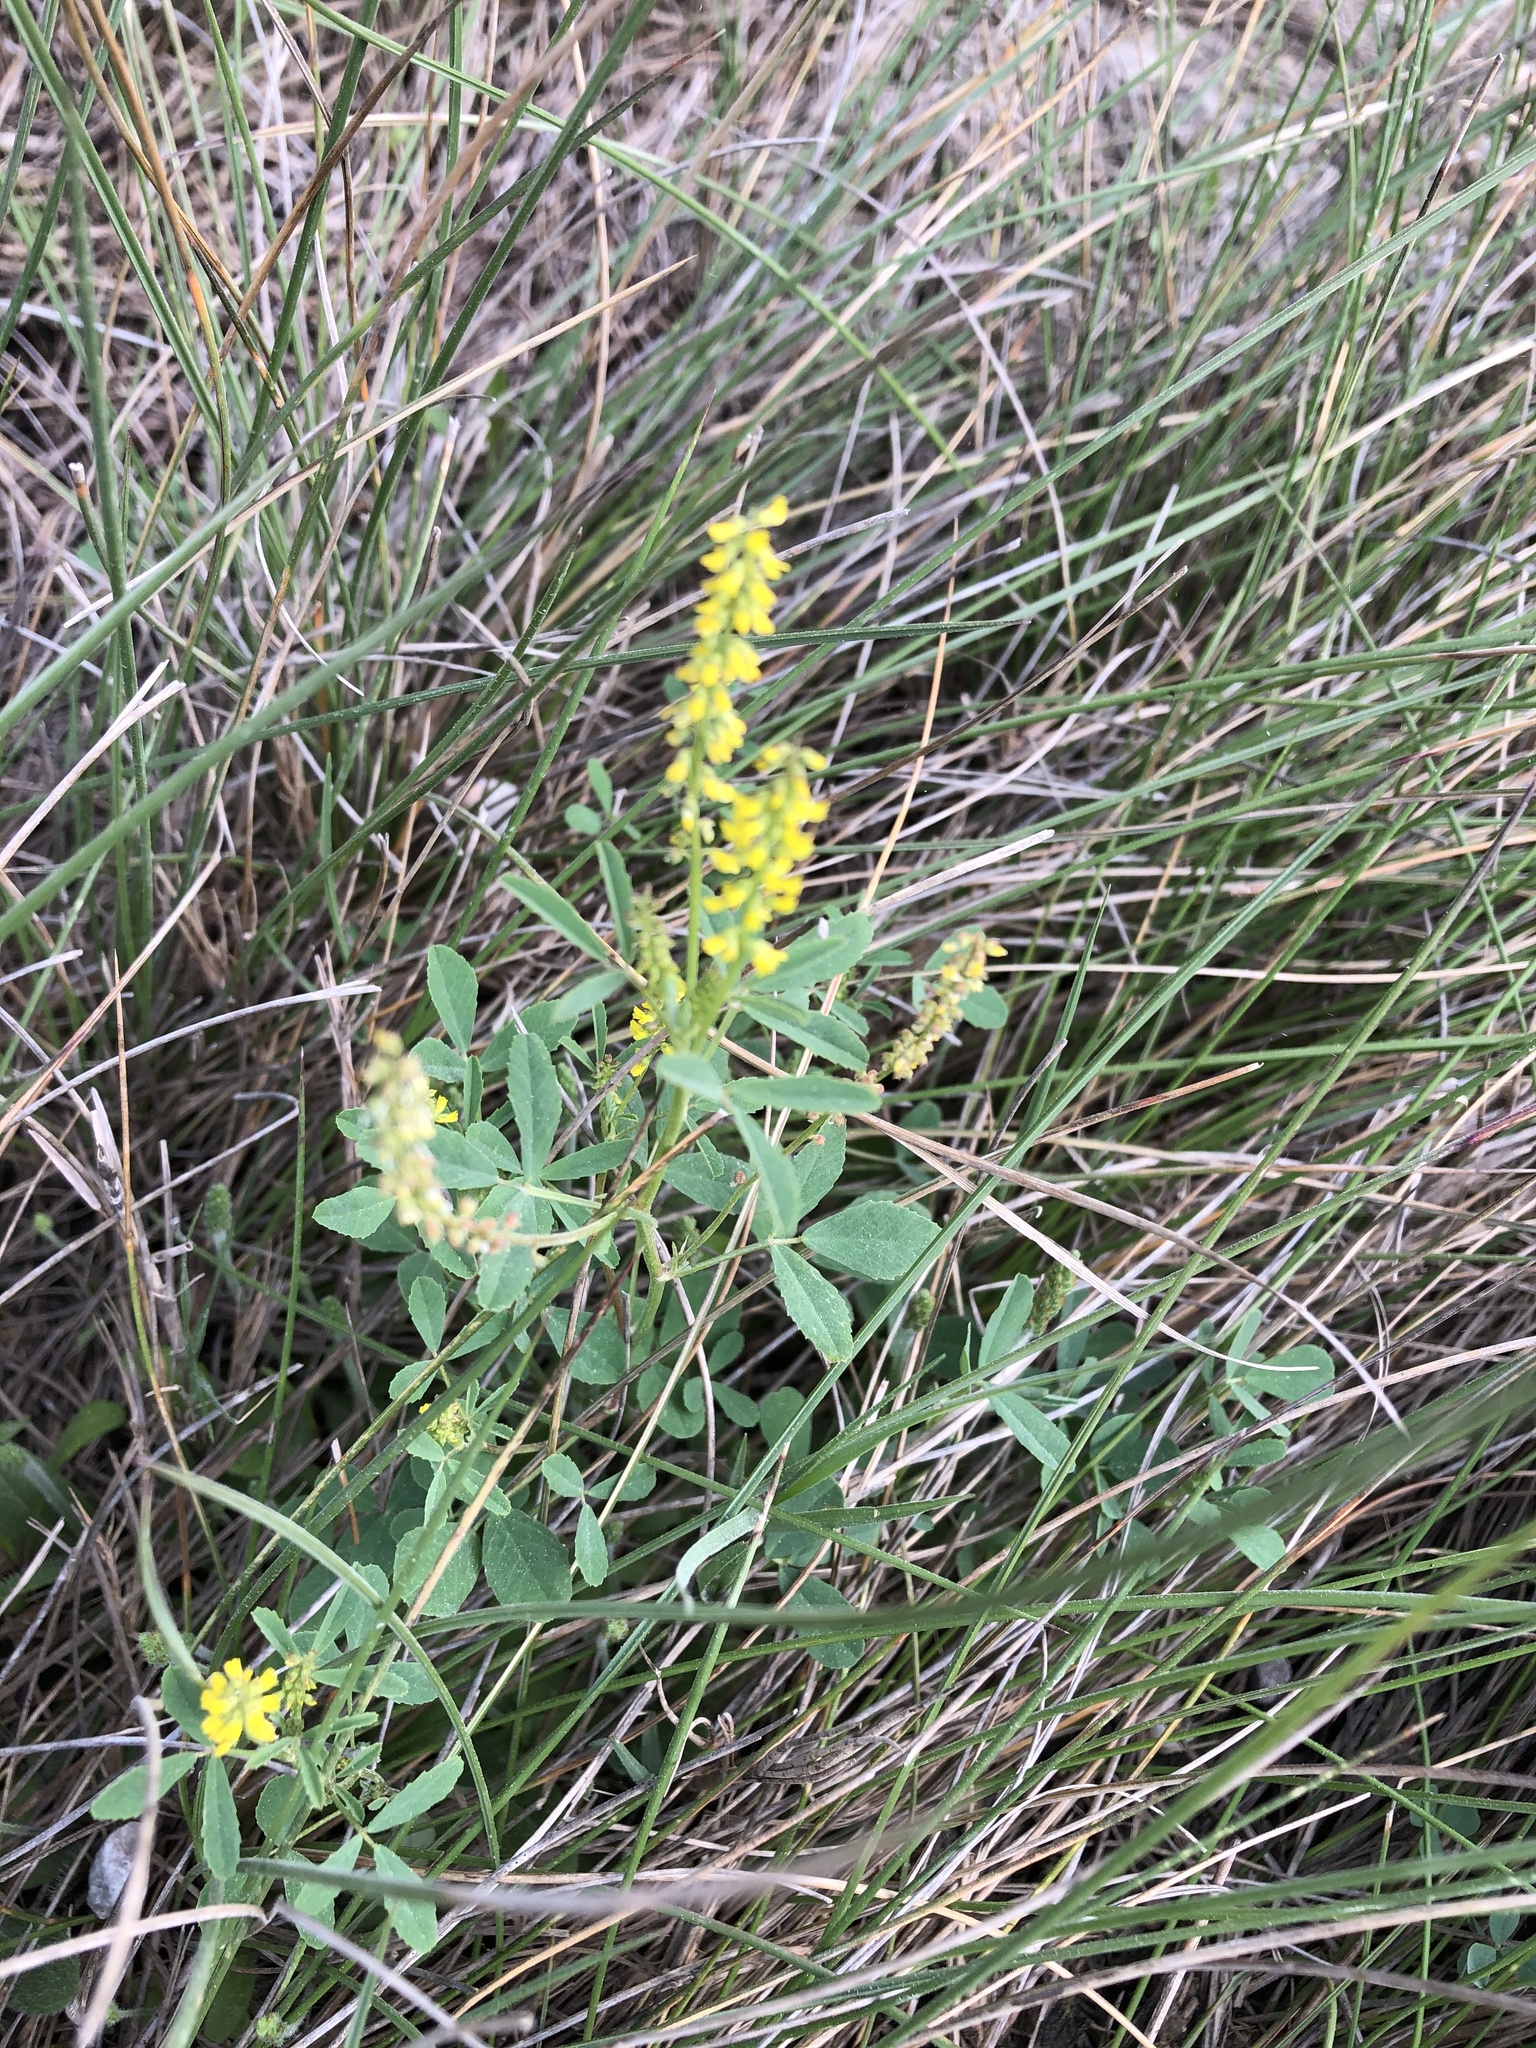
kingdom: Plantae
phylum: Tracheophyta
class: Magnoliopsida
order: Fabales
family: Fabaceae
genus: Melilotus
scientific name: Melilotus indicus
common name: Small melilot
